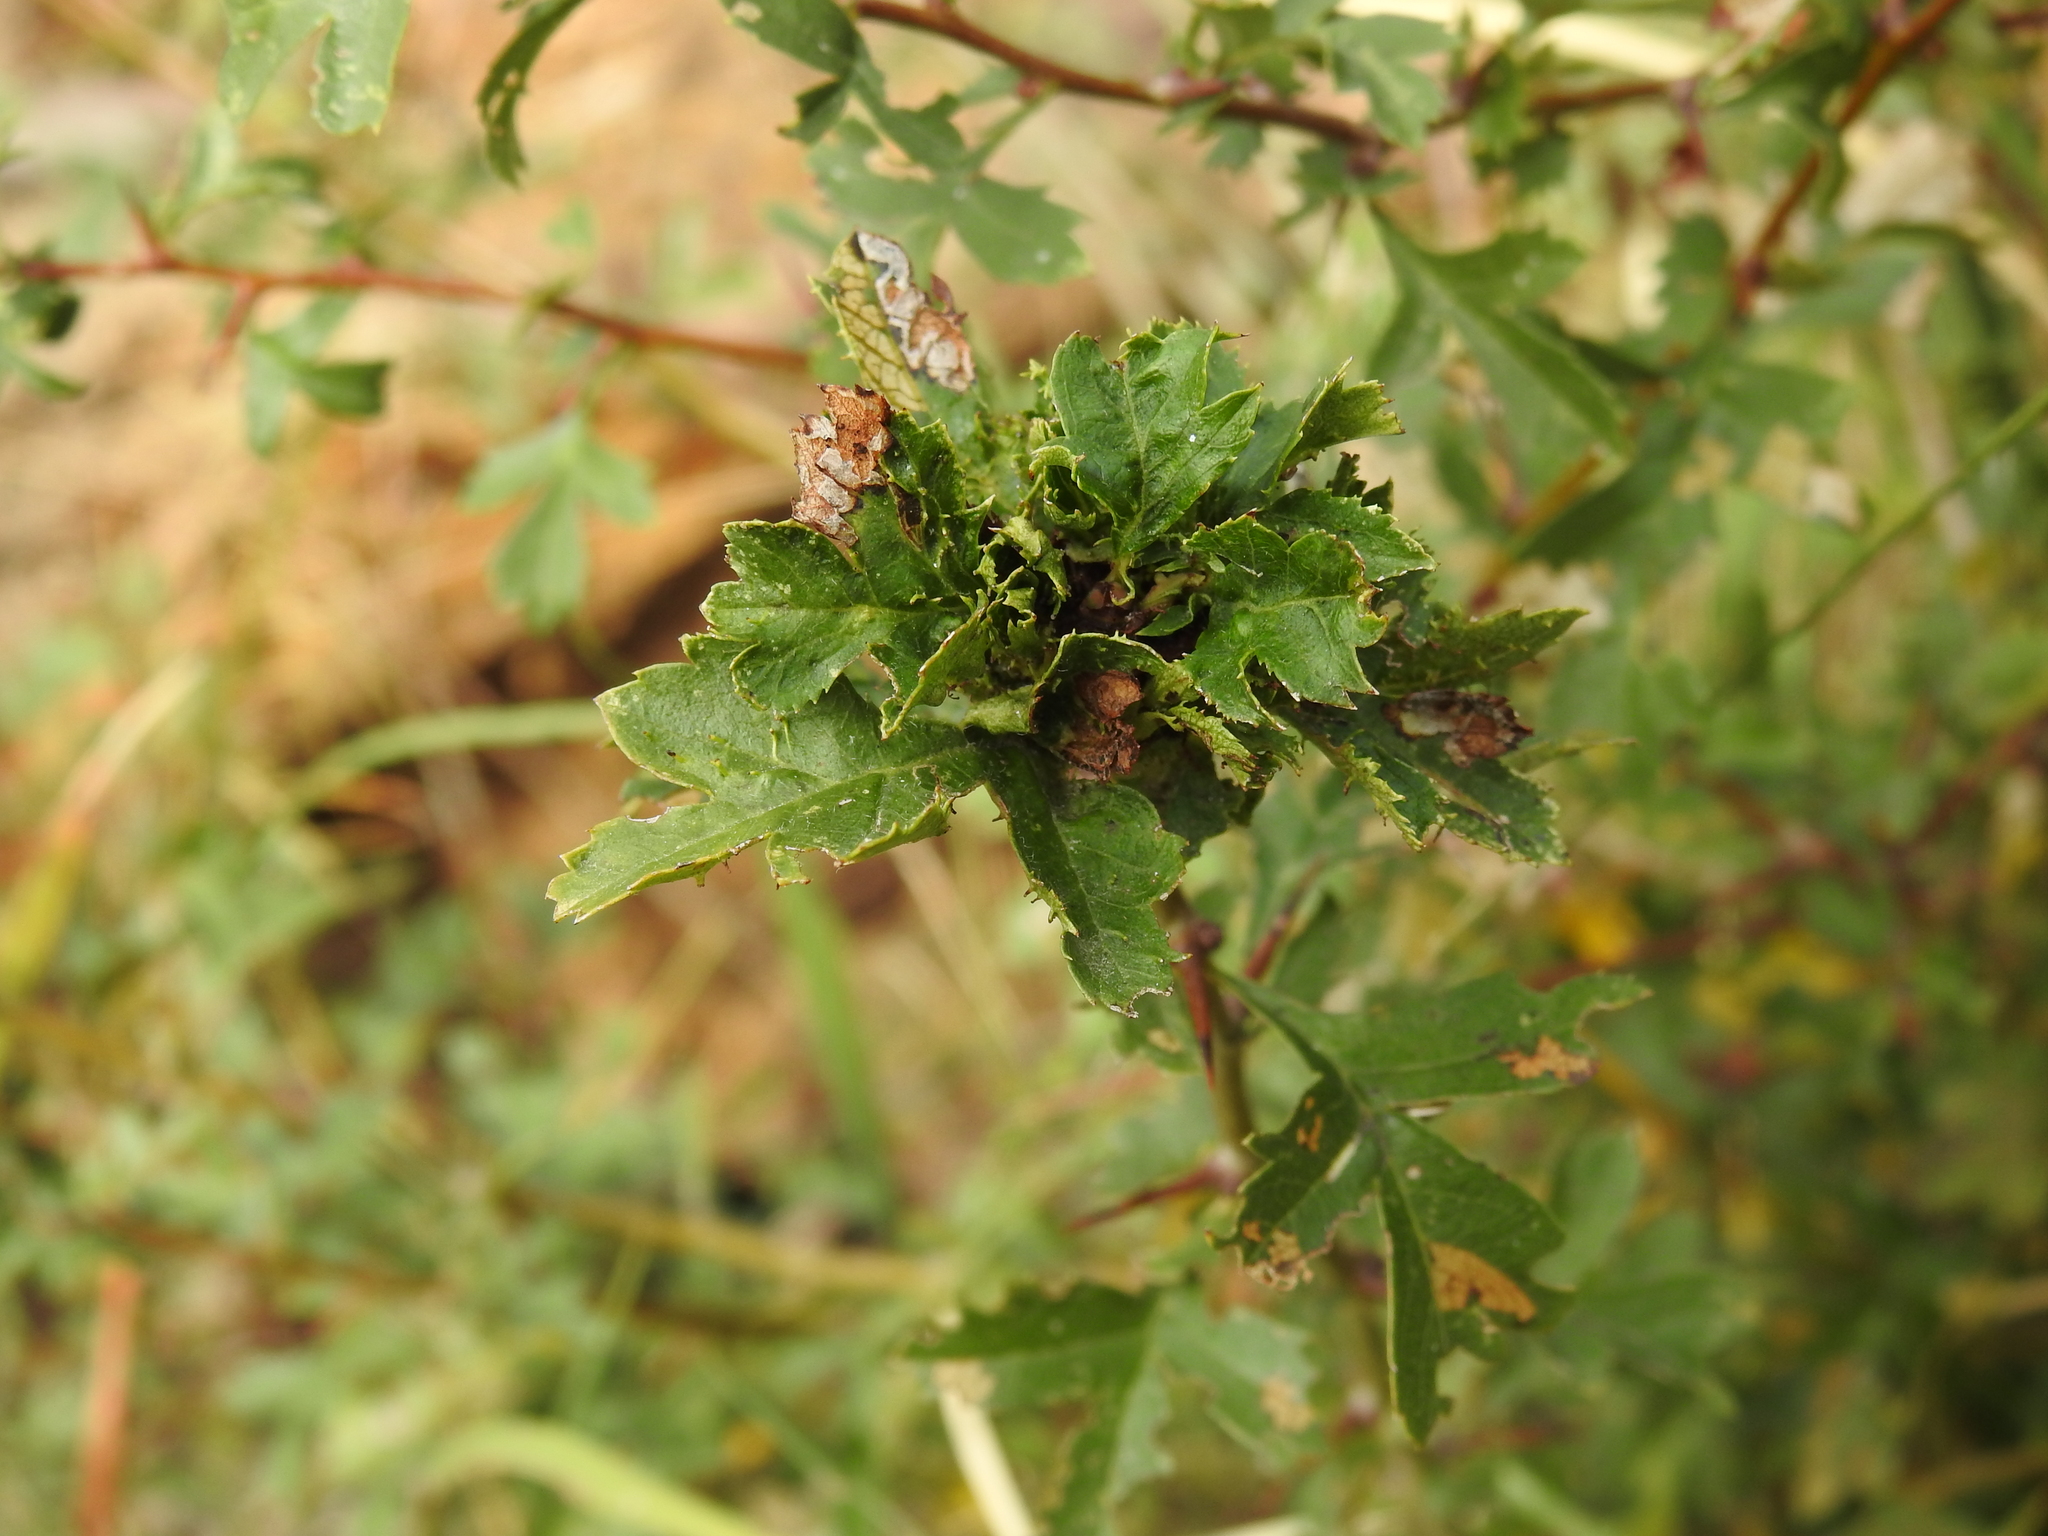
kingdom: Animalia
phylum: Arthropoda
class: Insecta
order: Diptera
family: Cecidomyiidae
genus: Dasineura
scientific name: Dasineura crataegi
